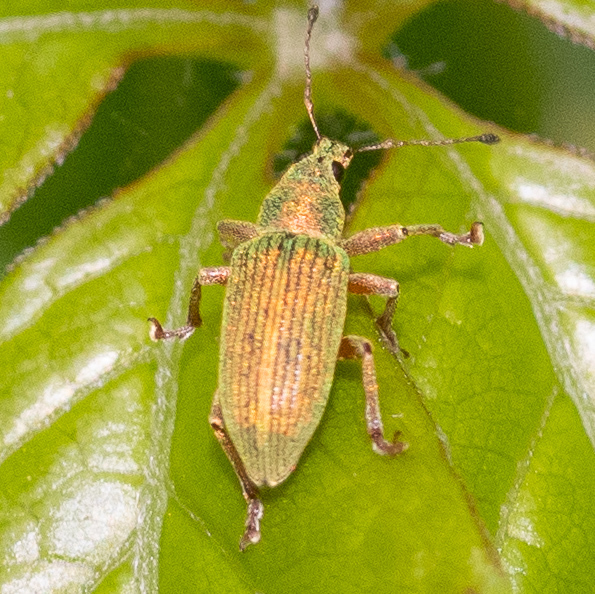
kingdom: Animalia
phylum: Arthropoda
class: Insecta
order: Coleoptera
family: Curculionidae
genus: Polydrusus
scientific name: Polydrusus formosus
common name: Weevil
